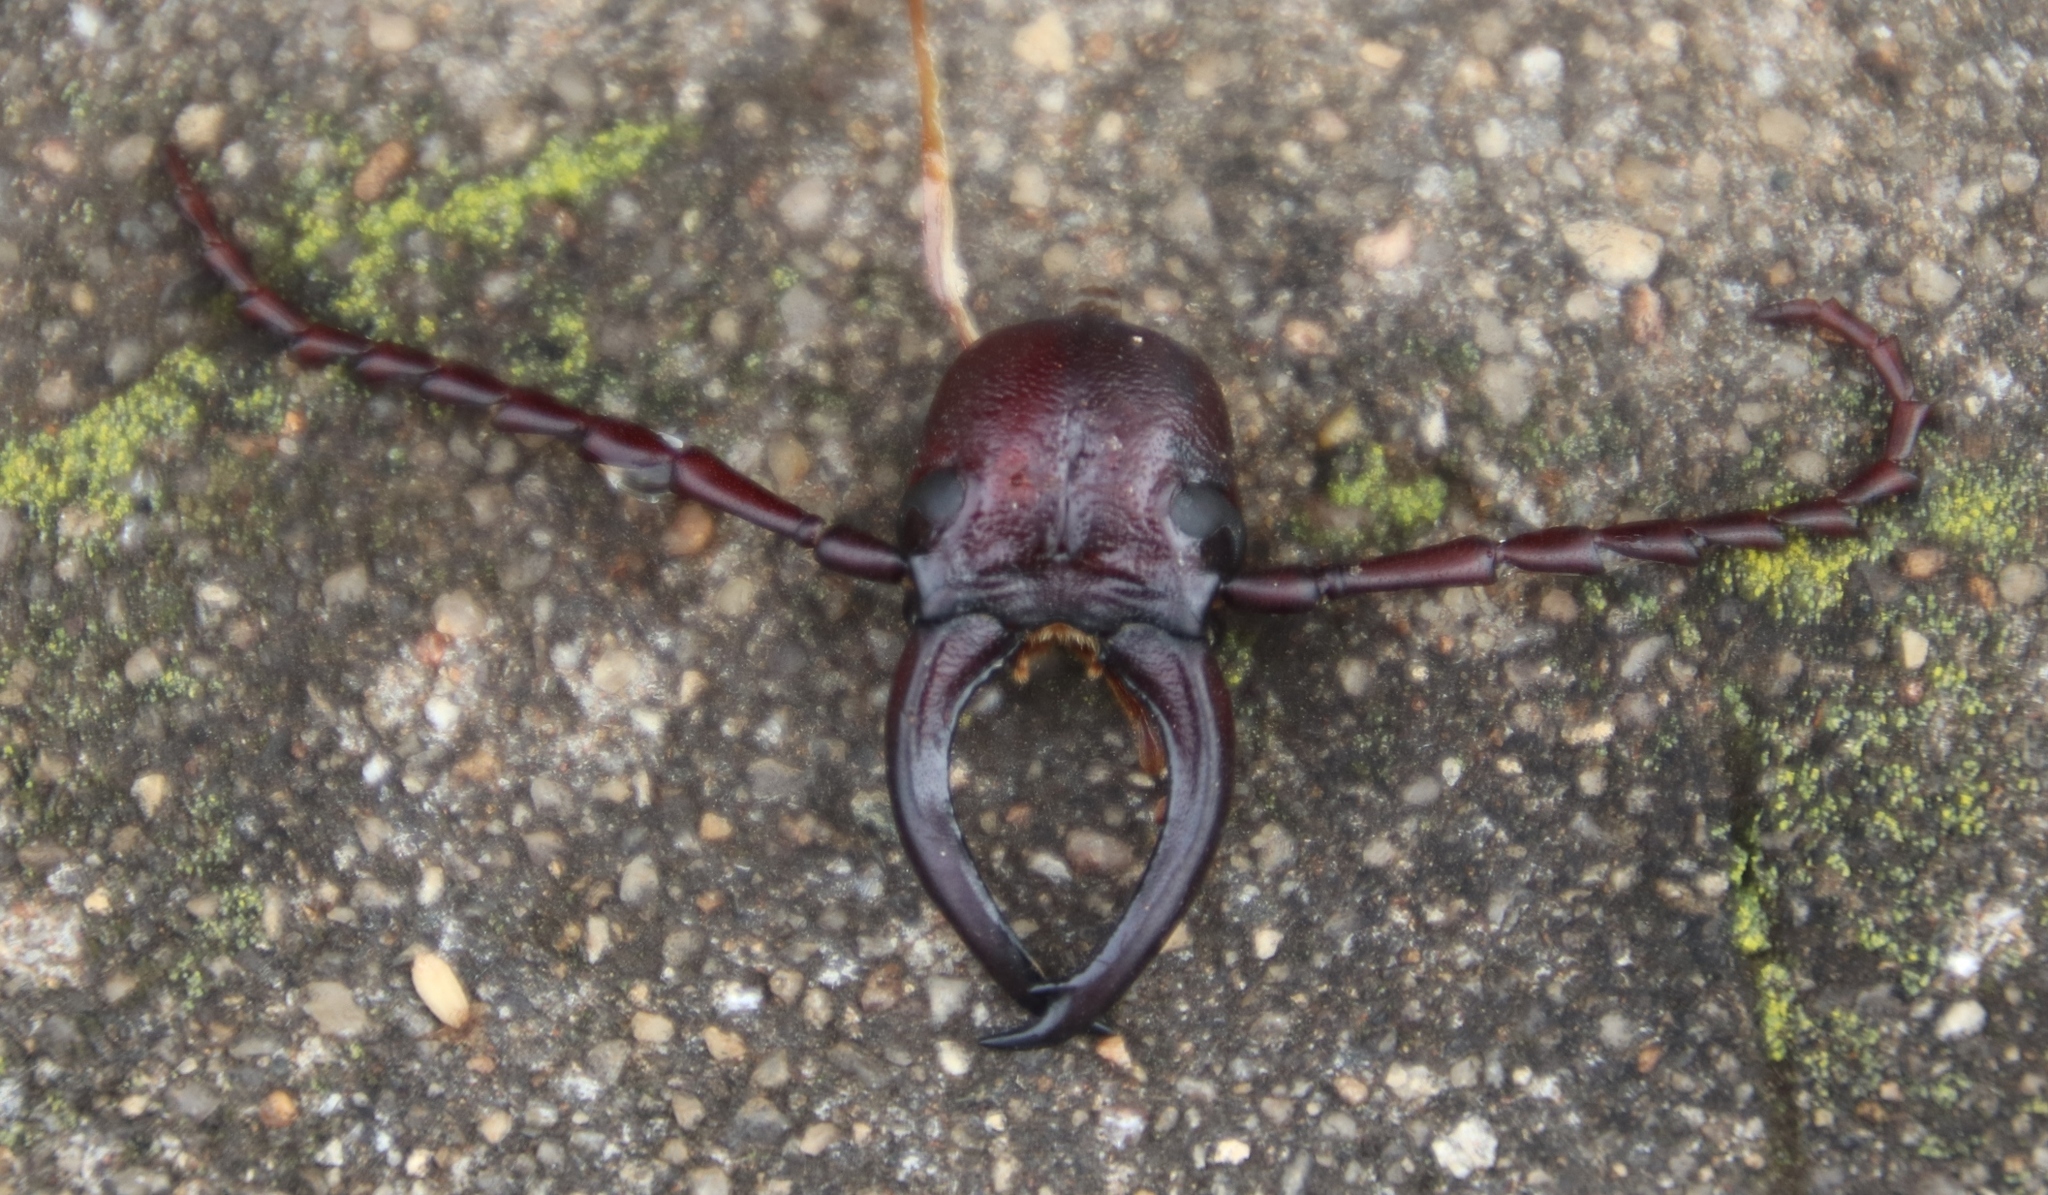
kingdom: Animalia
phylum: Arthropoda
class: Insecta
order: Coleoptera
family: Cerambycidae
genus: Cacosceles
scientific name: Cacosceles newmannii
